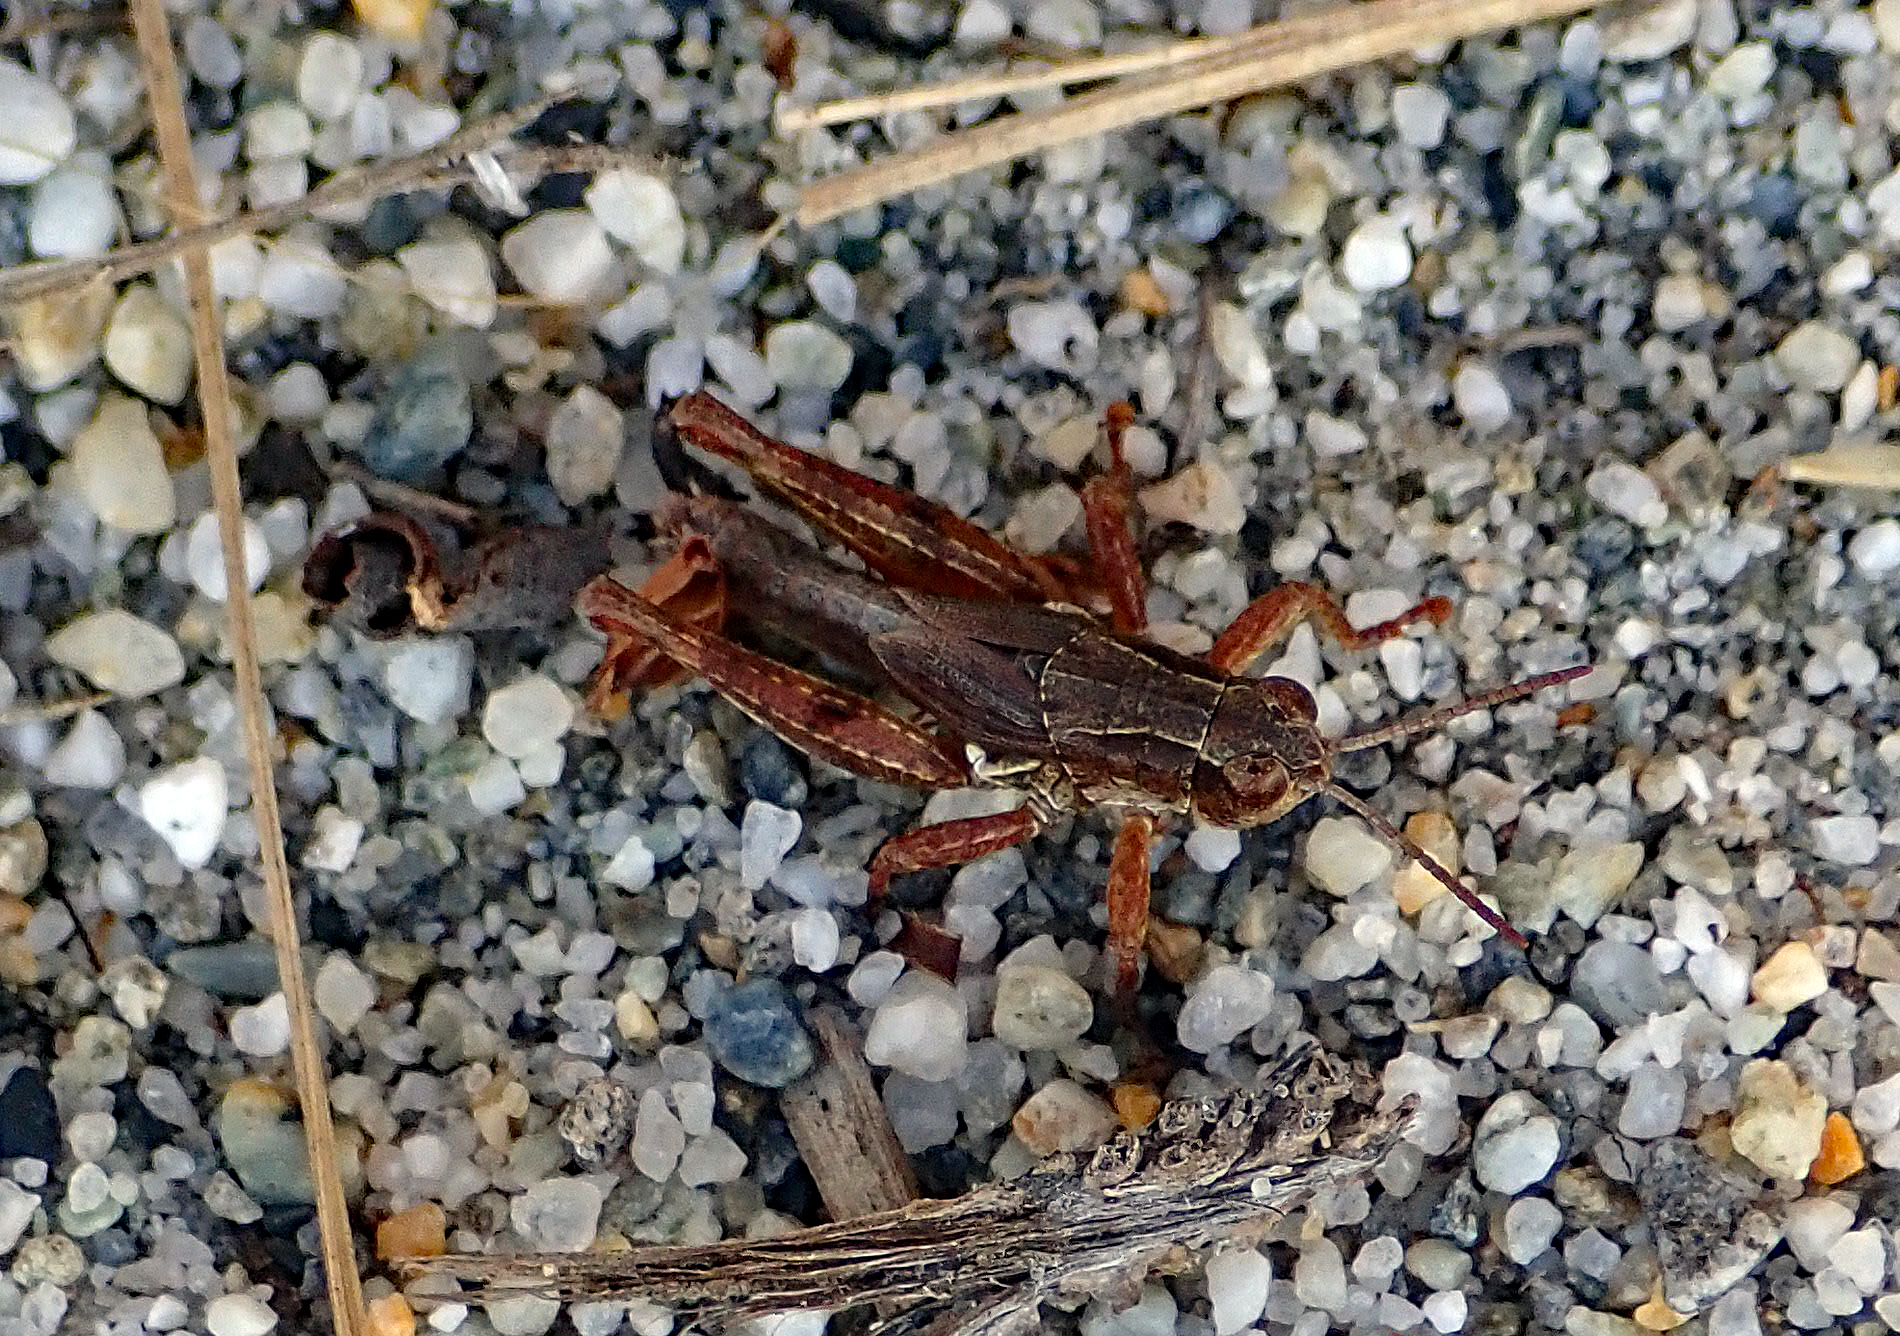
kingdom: Animalia
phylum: Arthropoda
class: Insecta
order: Orthoptera
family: Acrididae
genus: Phaulacridium
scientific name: Phaulacridium marginale
